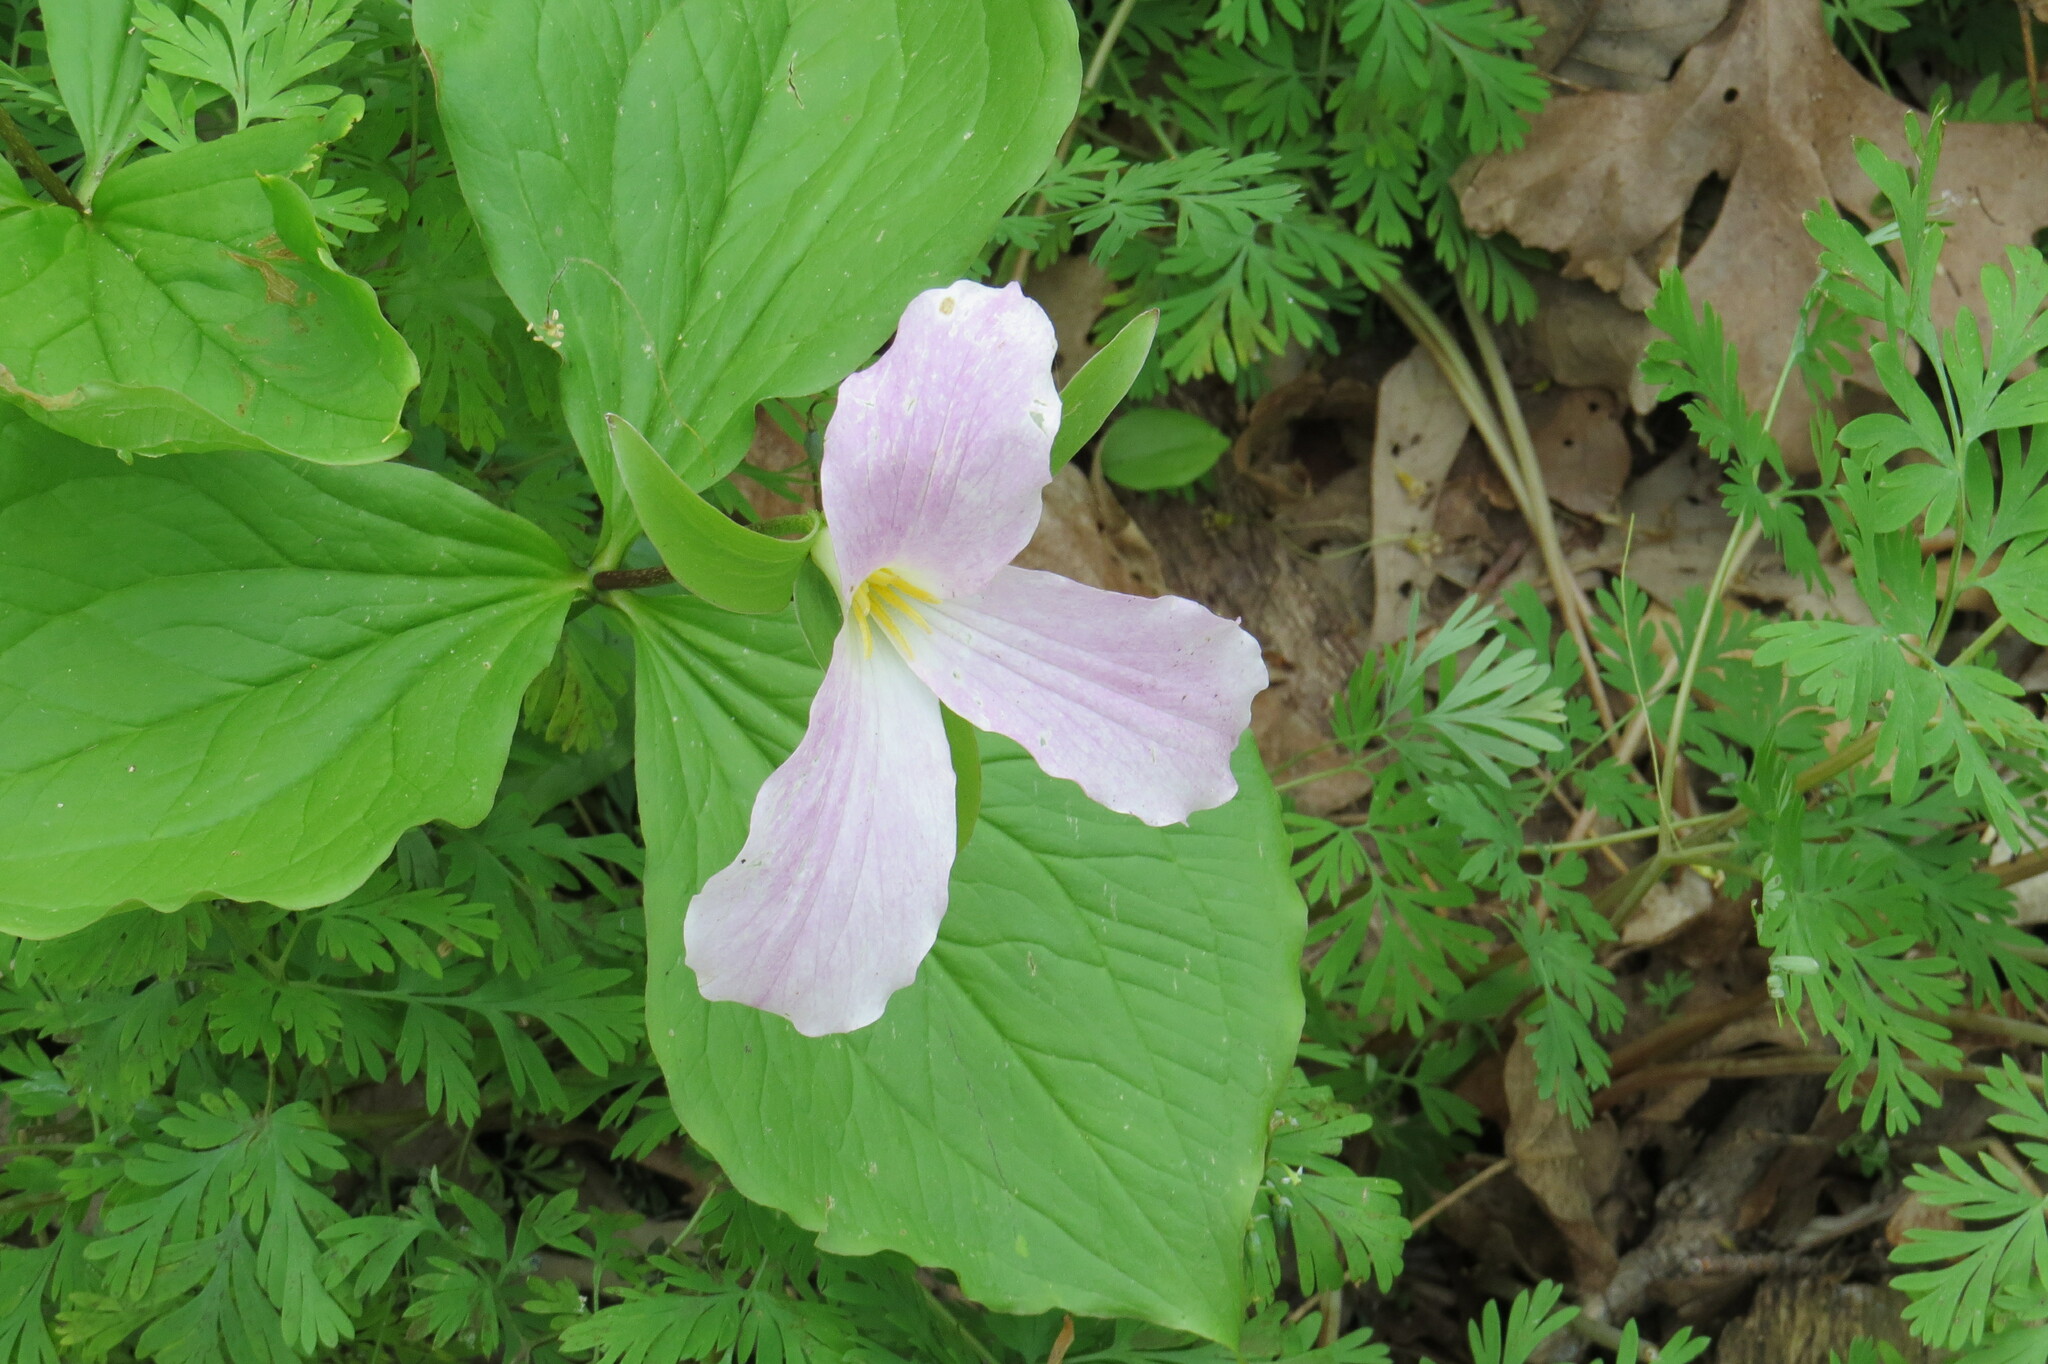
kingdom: Plantae
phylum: Tracheophyta
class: Liliopsida
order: Liliales
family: Melanthiaceae
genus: Trillium
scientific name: Trillium grandiflorum
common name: Great white trillium
